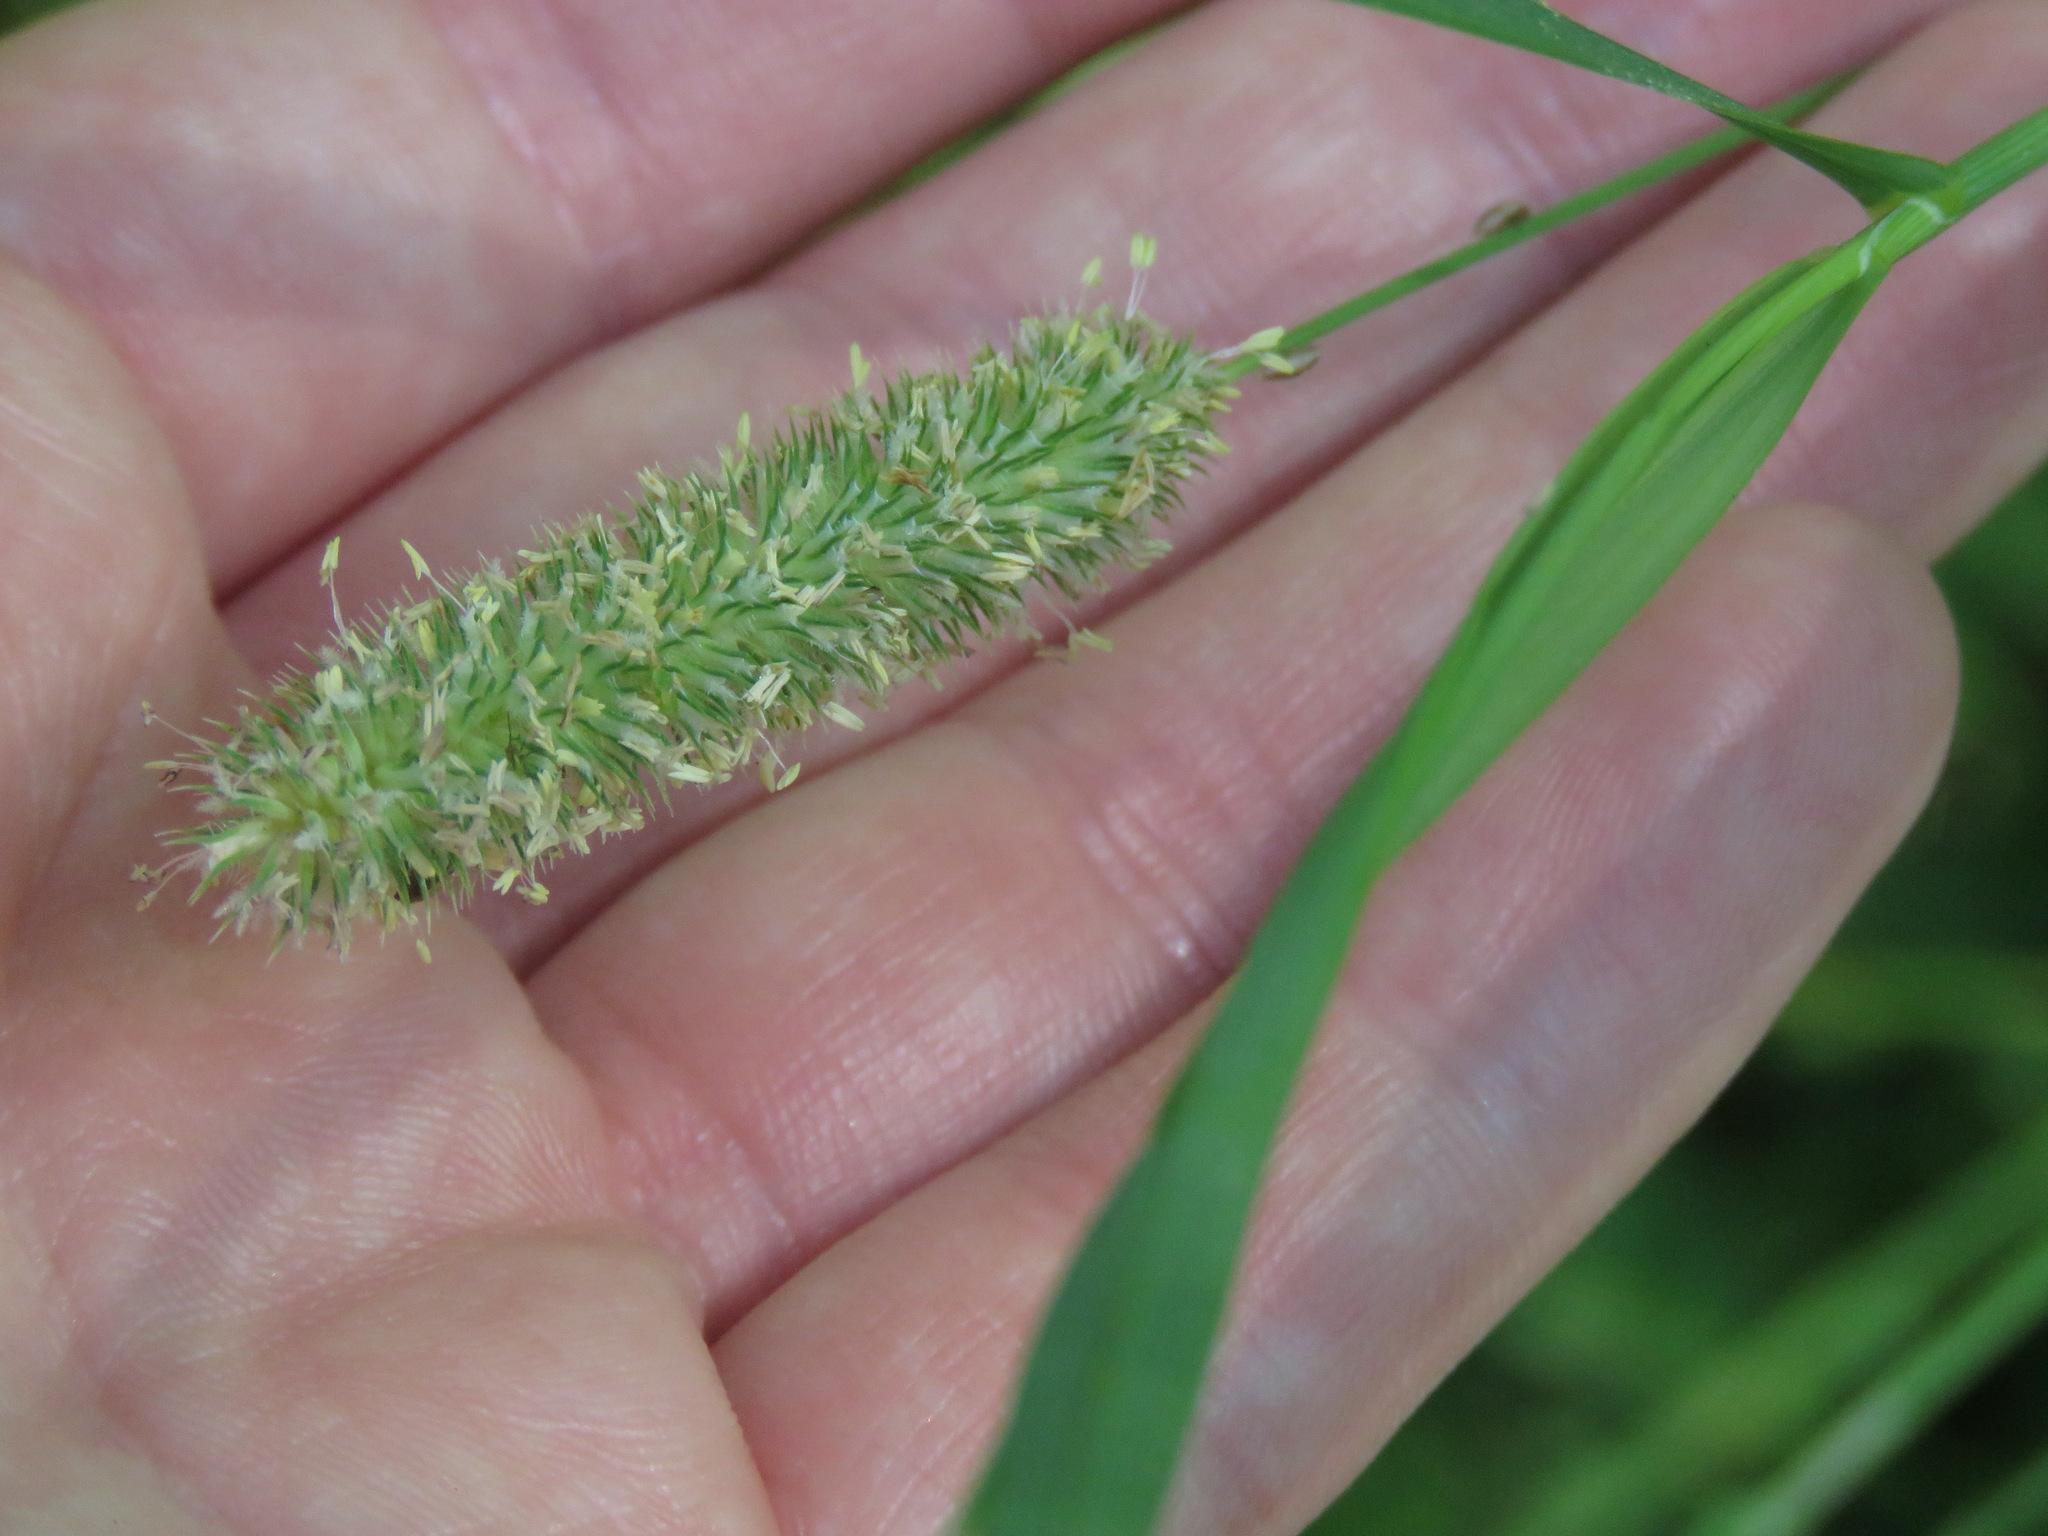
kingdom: Plantae
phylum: Tracheophyta
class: Liliopsida
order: Poales
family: Poaceae
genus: Phleum
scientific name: Phleum pratense
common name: Timothy grass
